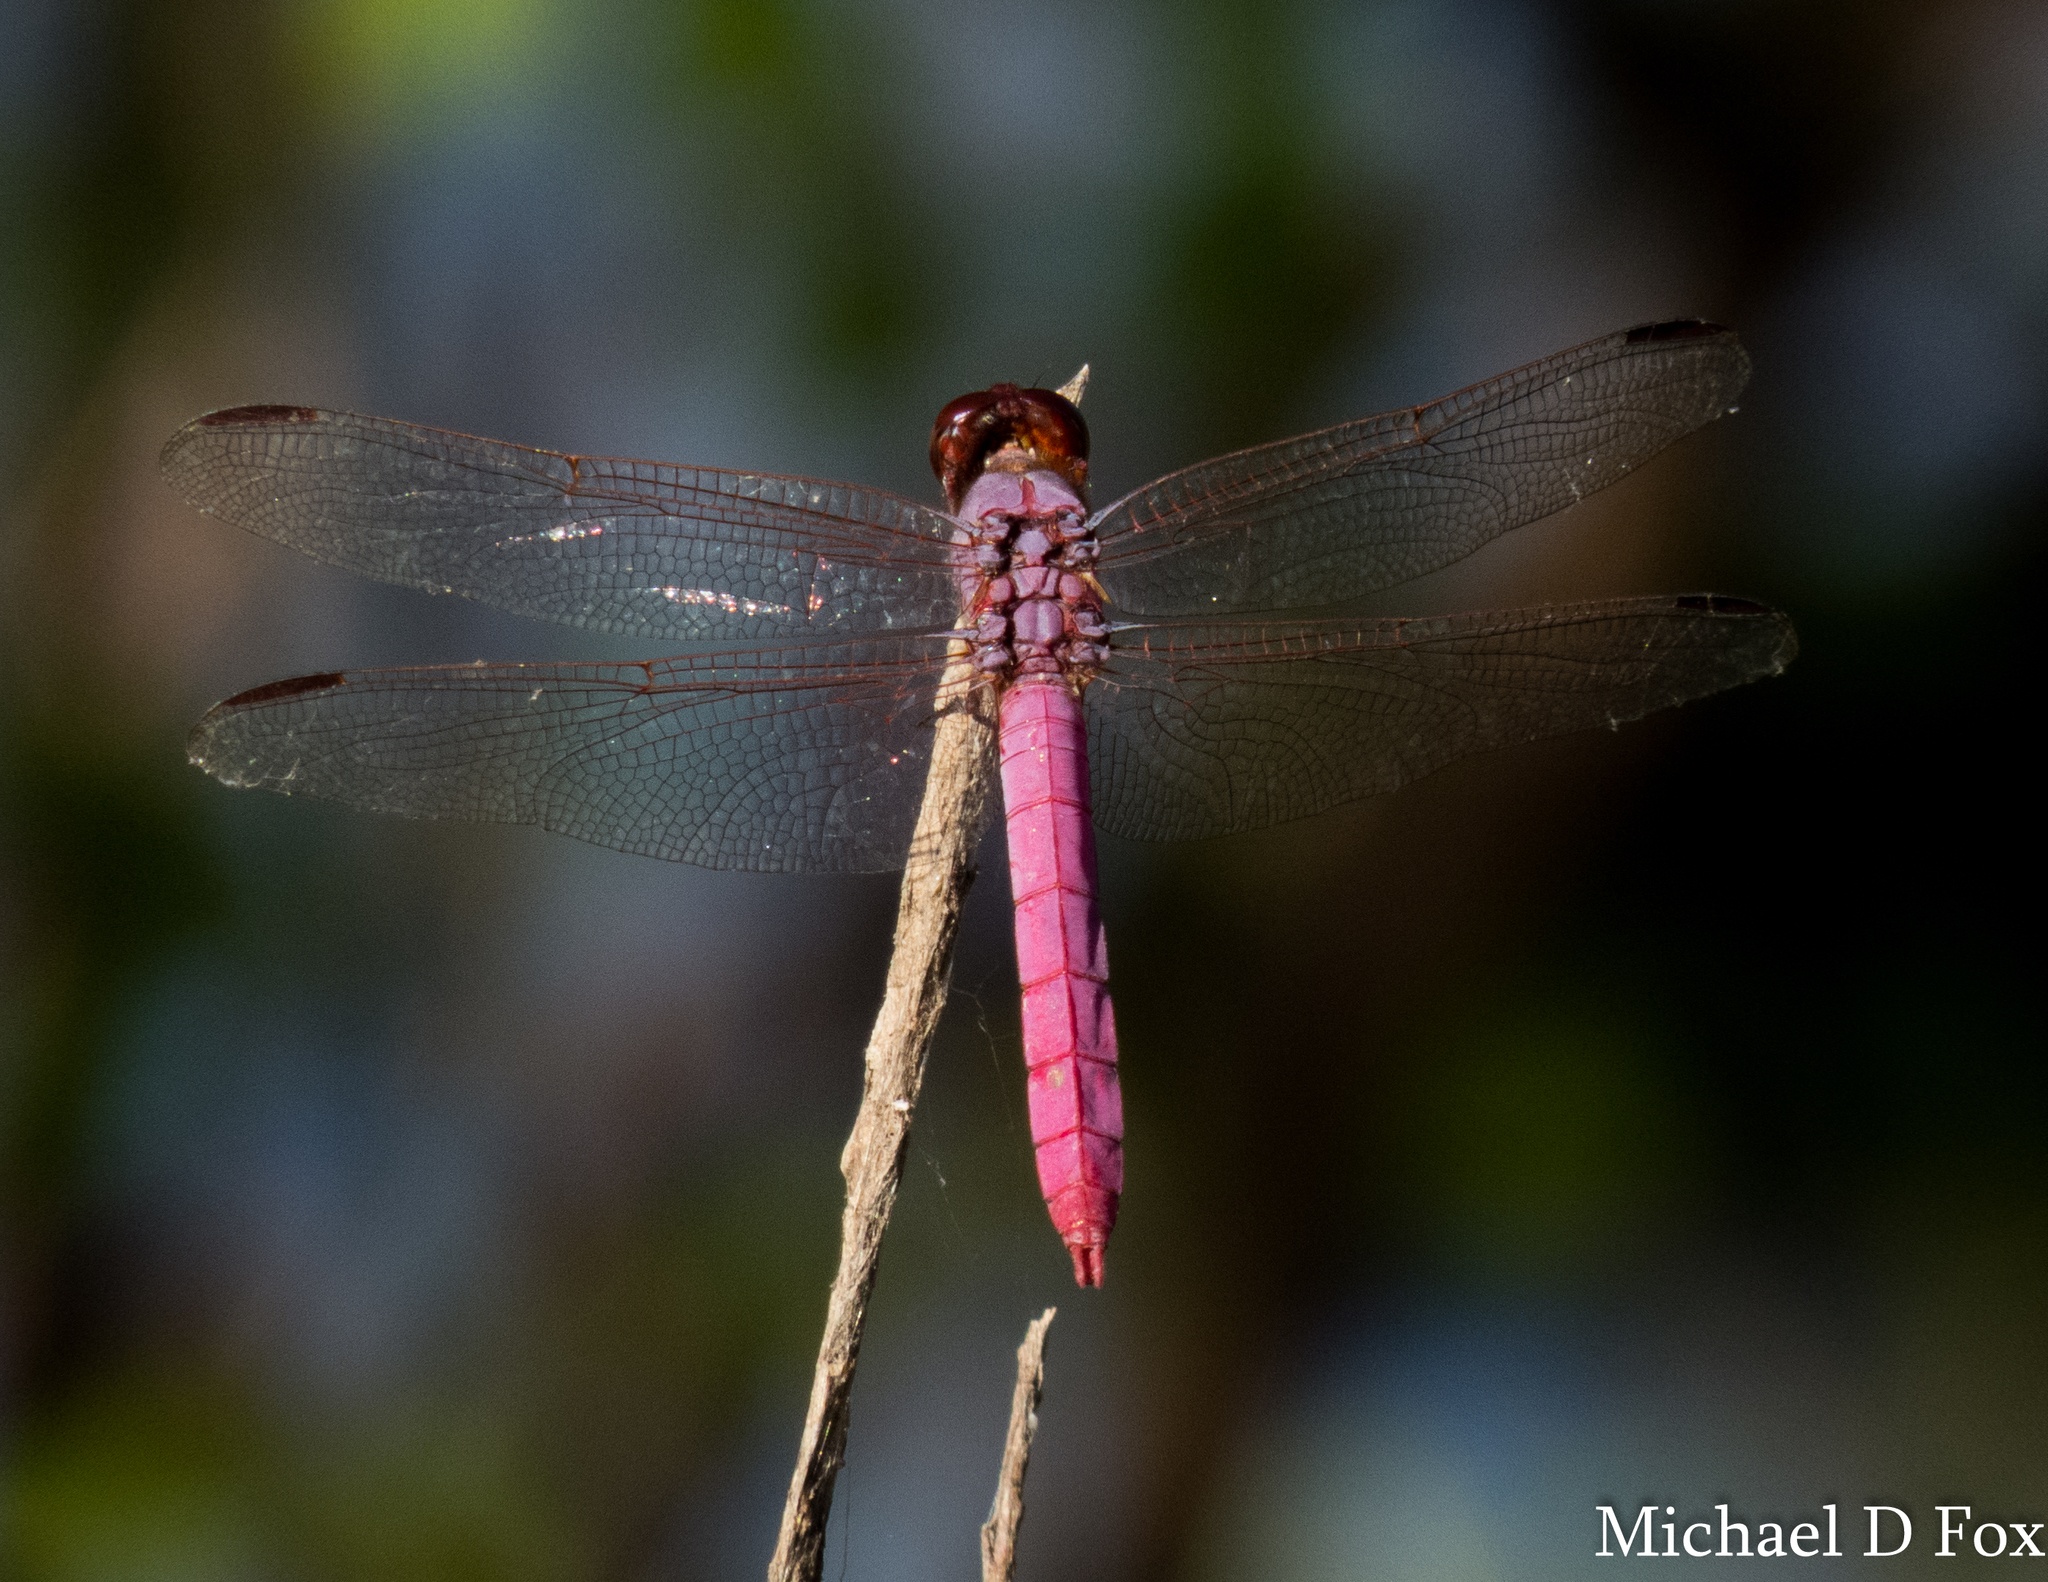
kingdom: Animalia
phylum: Arthropoda
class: Insecta
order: Odonata
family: Libellulidae
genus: Orthemis
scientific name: Orthemis ferruginea
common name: Roseate skimmer
